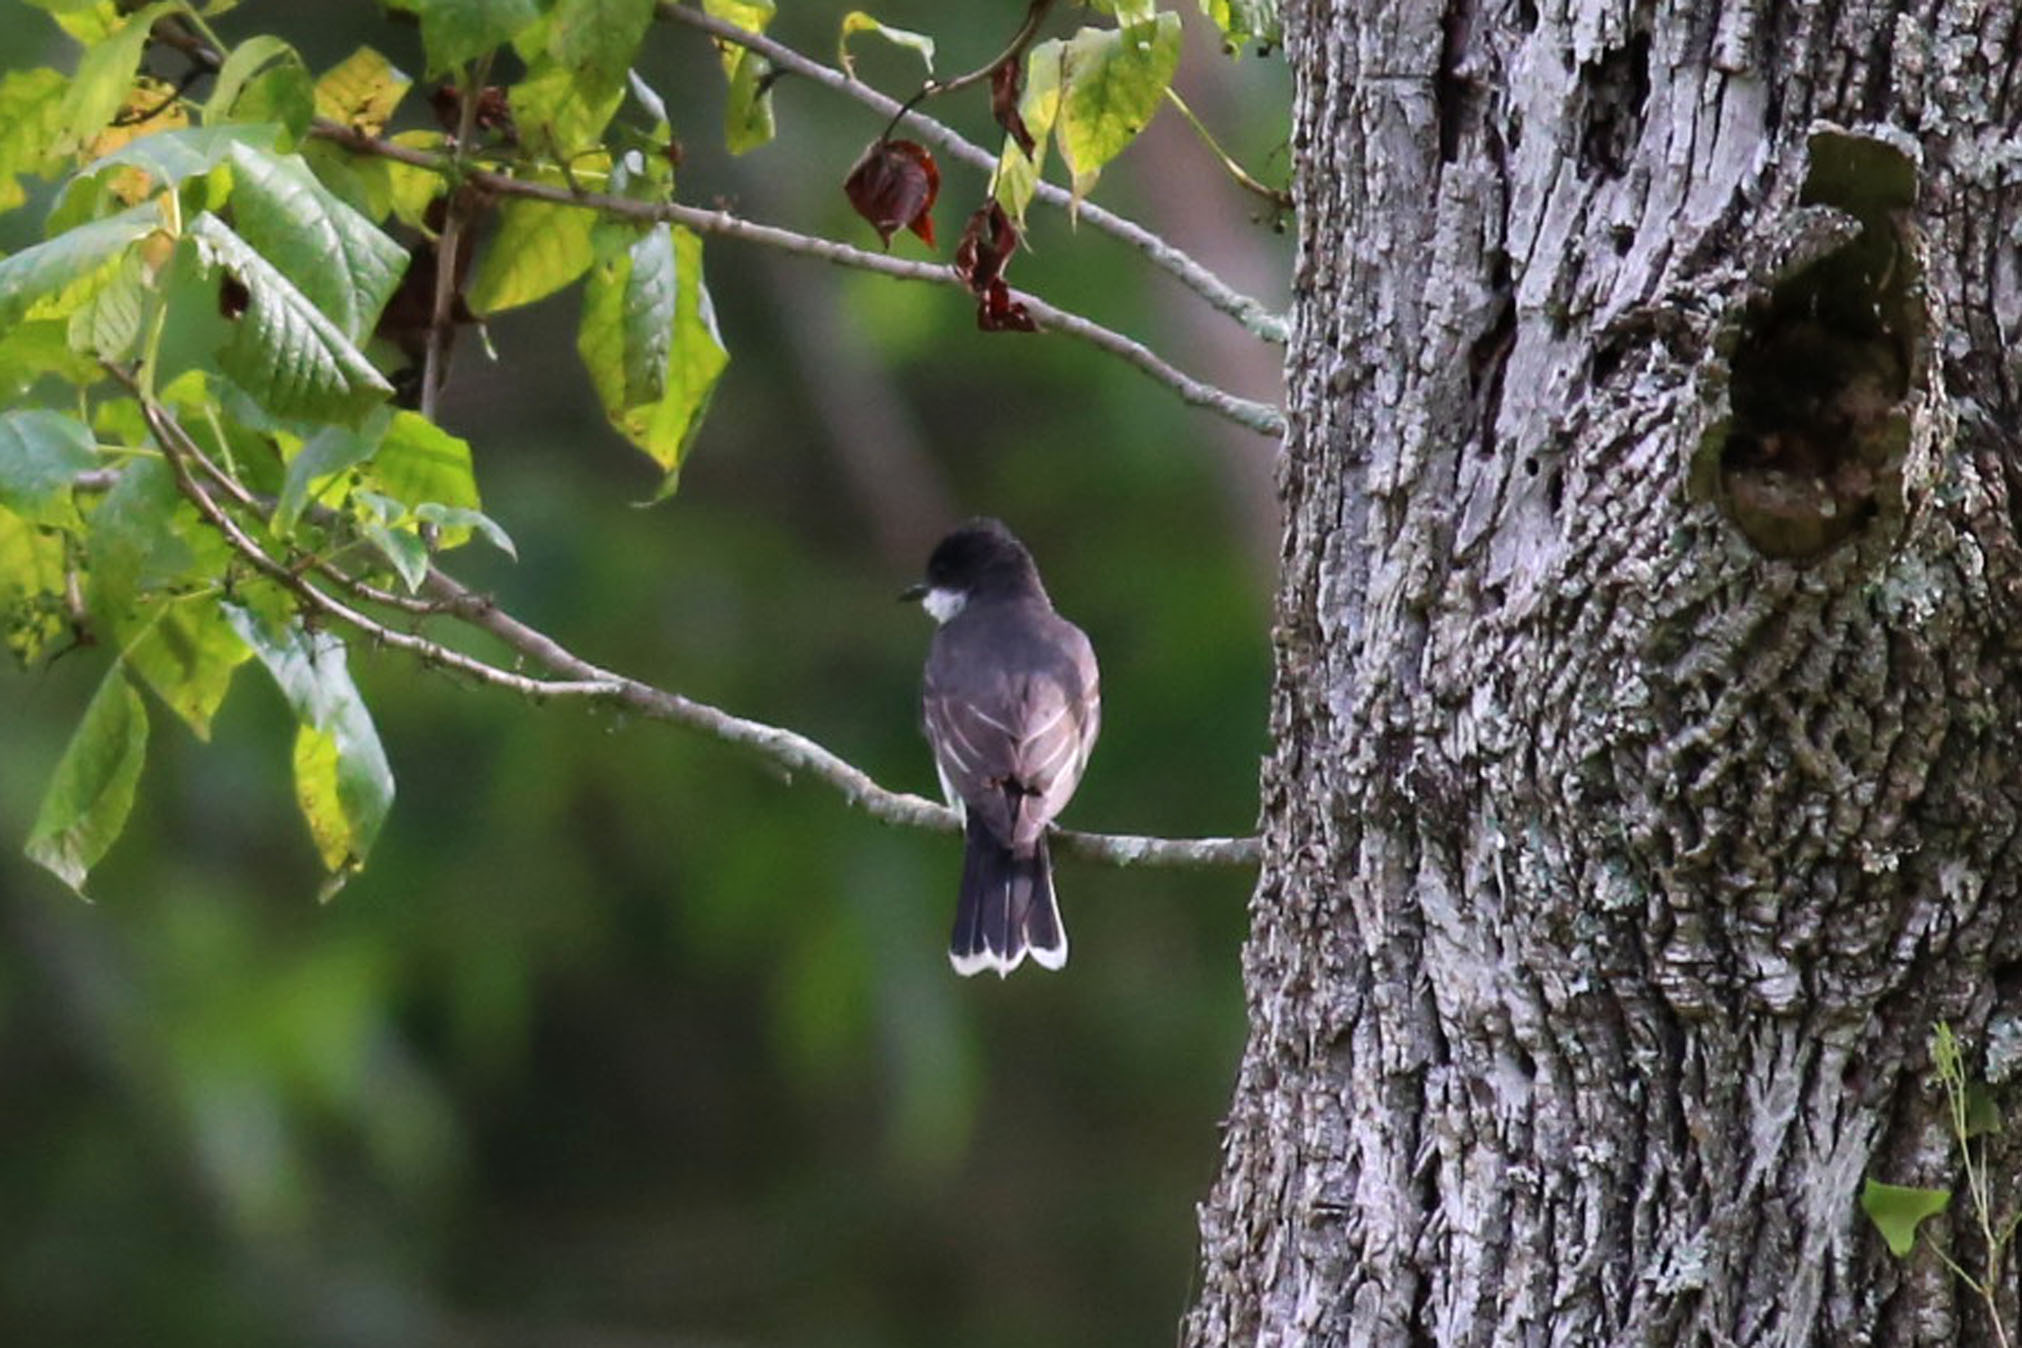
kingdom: Animalia
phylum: Chordata
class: Aves
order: Passeriformes
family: Tyrannidae
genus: Tyrannus
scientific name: Tyrannus tyrannus
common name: Eastern kingbird
